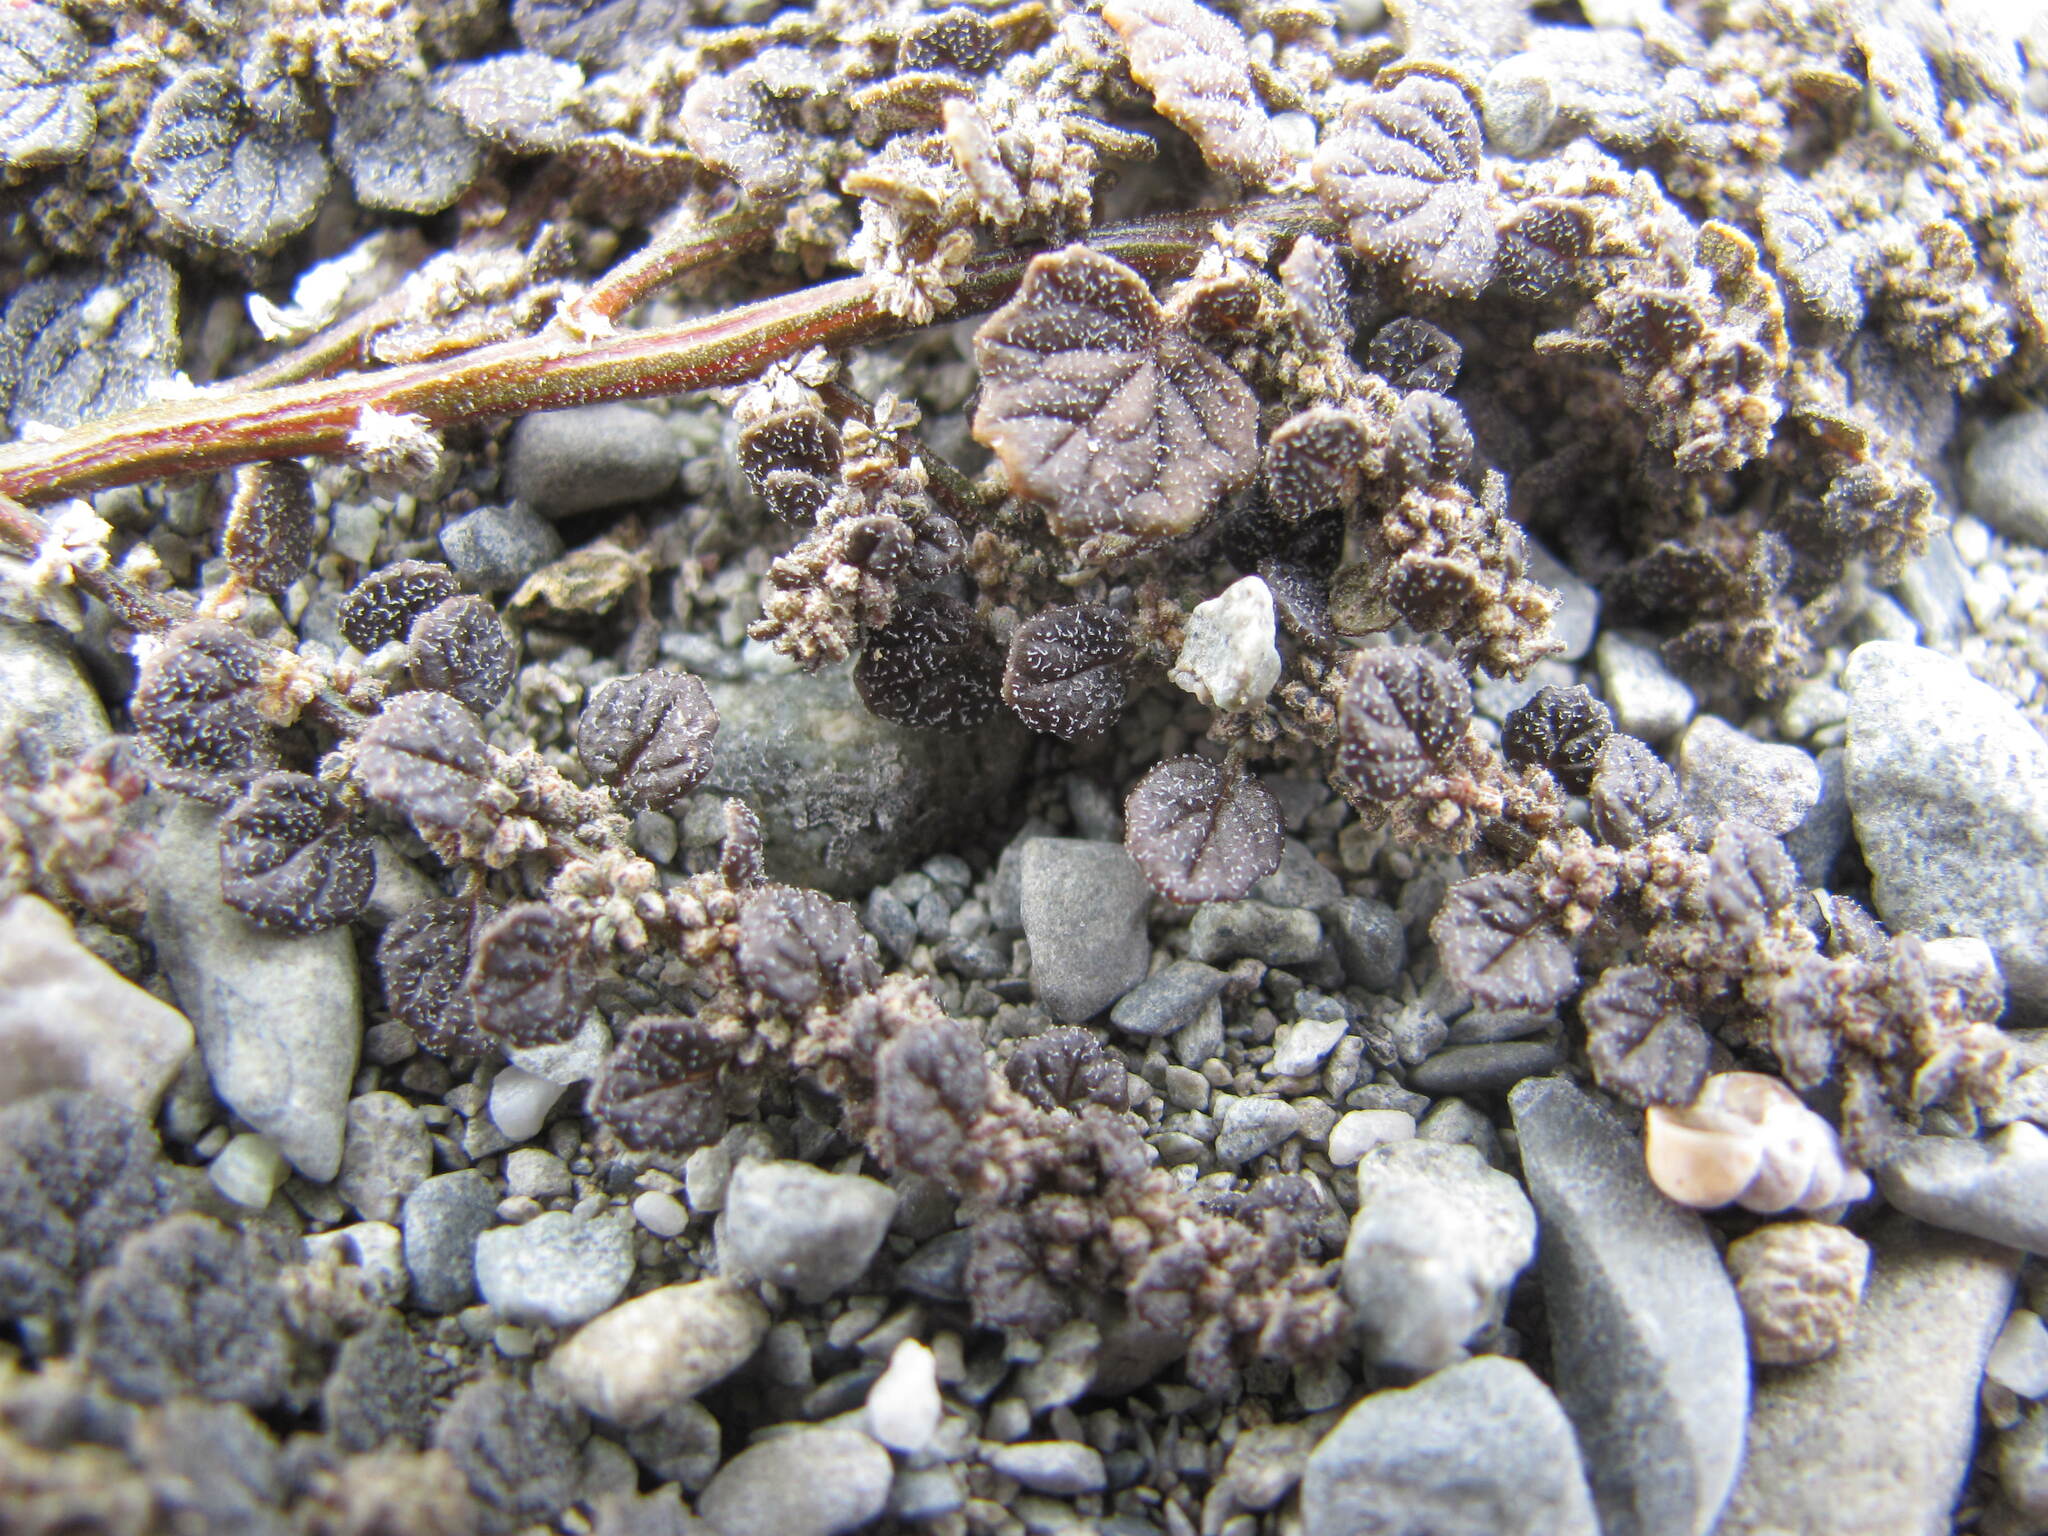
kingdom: Plantae
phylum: Tracheophyta
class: Magnoliopsida
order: Caryophyllales
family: Amaranthaceae
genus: Dysphania
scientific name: Dysphania pusilla
